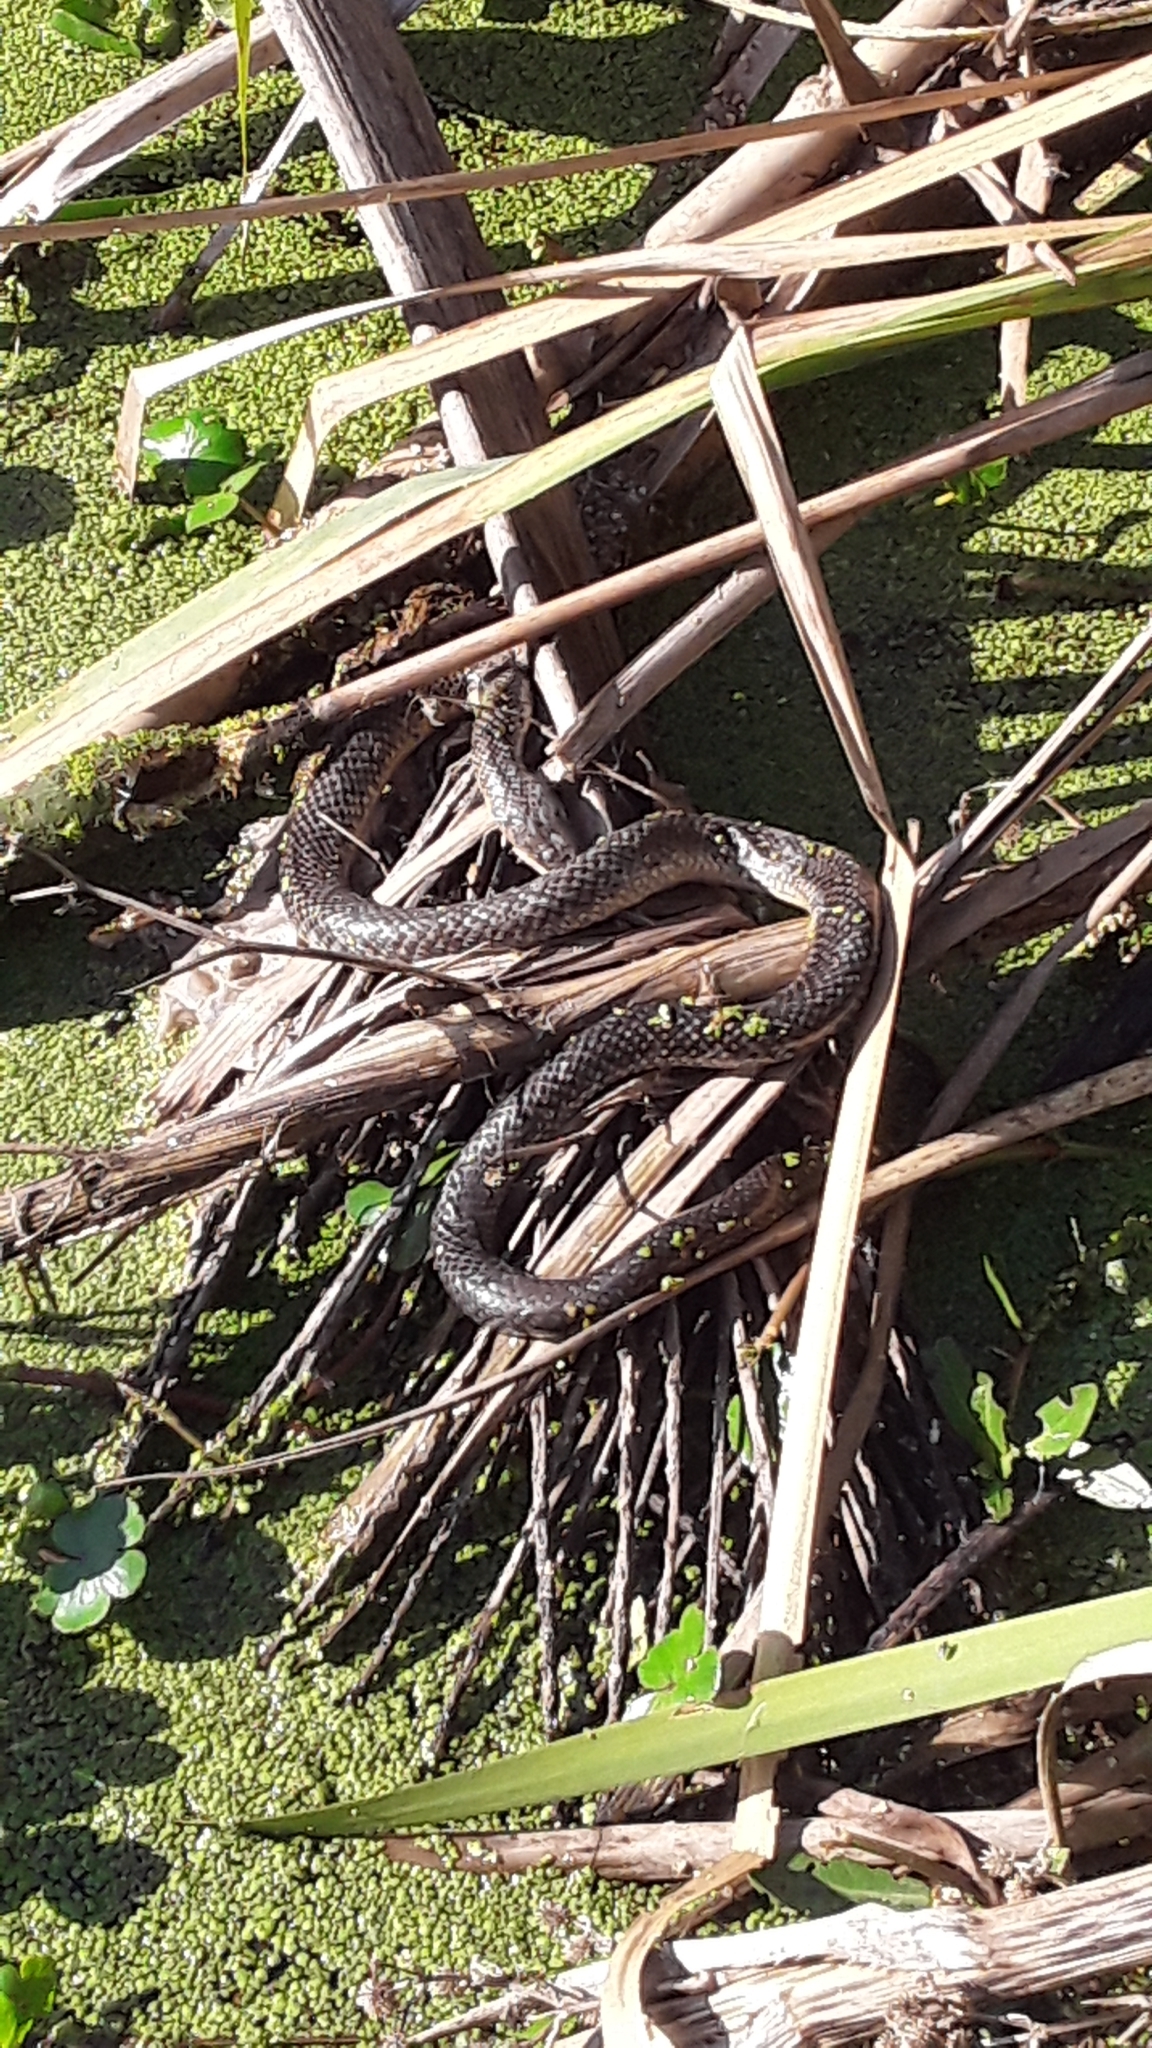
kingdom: Animalia
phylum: Chordata
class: Squamata
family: Colubridae
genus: Erythrolamprus
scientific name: Erythrolamprus semiaureus
